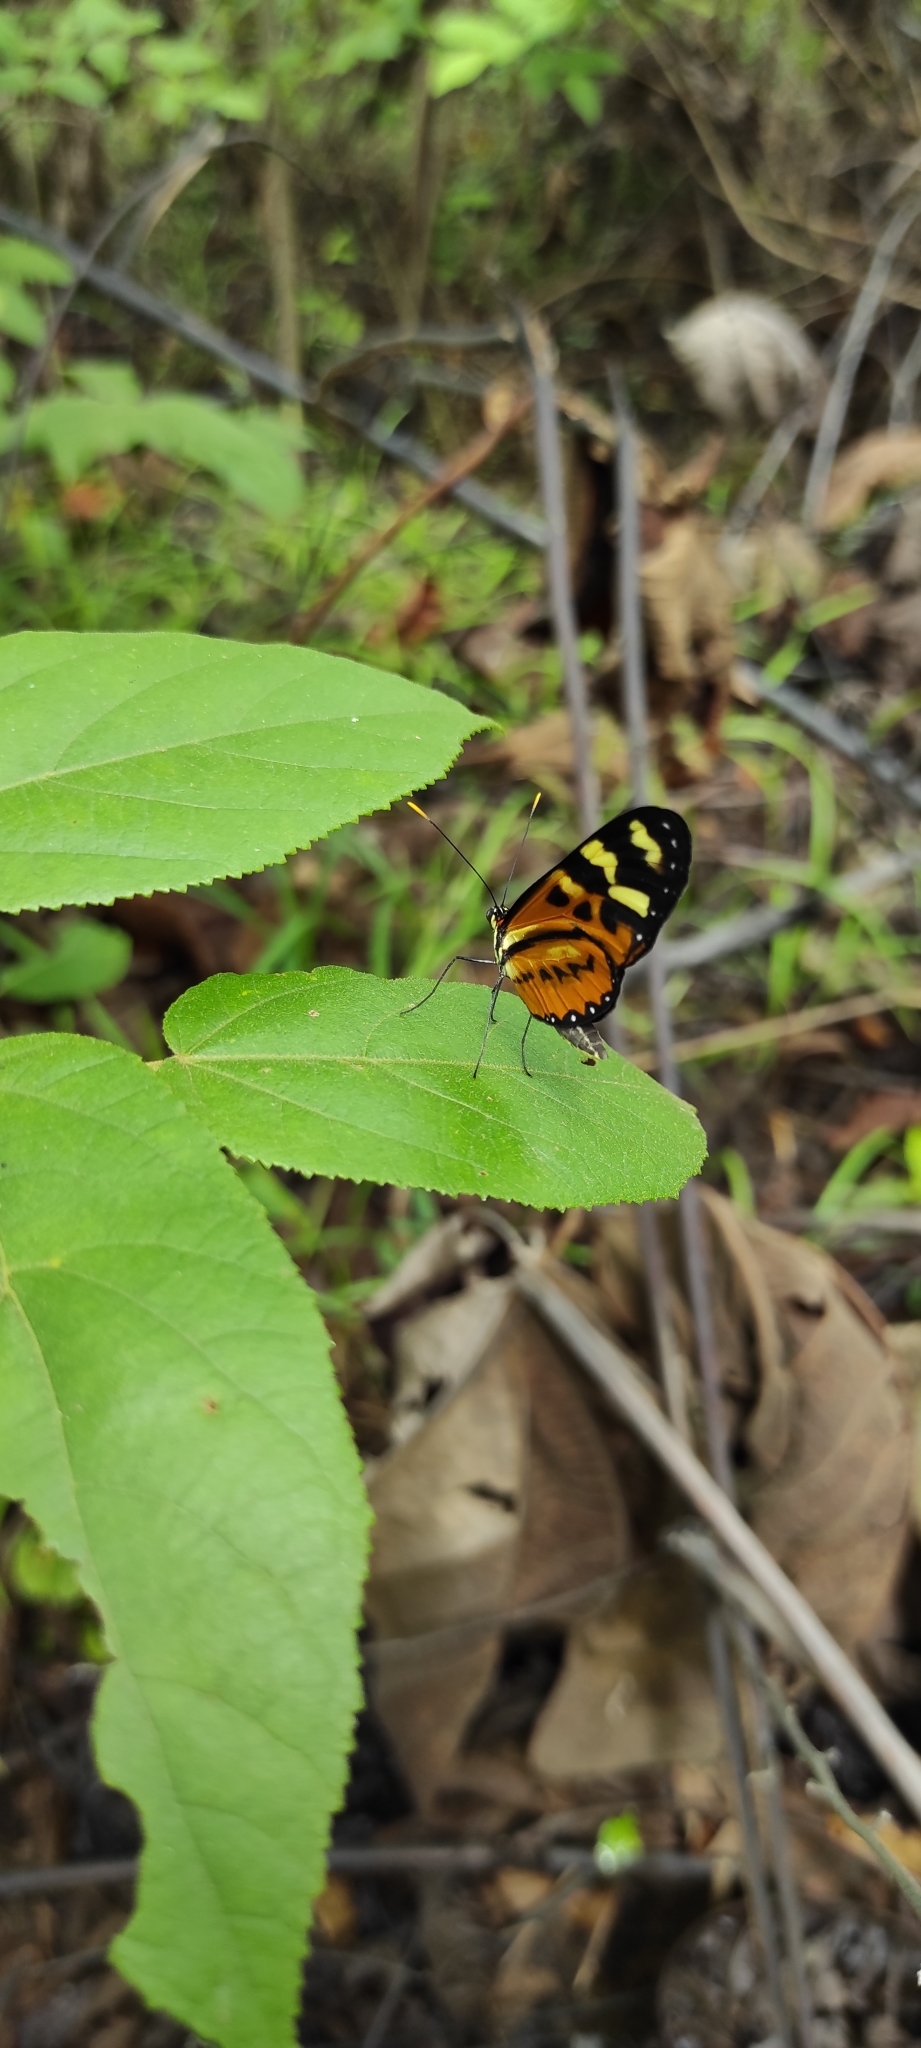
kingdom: Animalia
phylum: Arthropoda
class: Insecta
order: Lepidoptera
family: Nymphalidae
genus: Mechanitis
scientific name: Mechanitis polymnia
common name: Disturbed tigerwing
